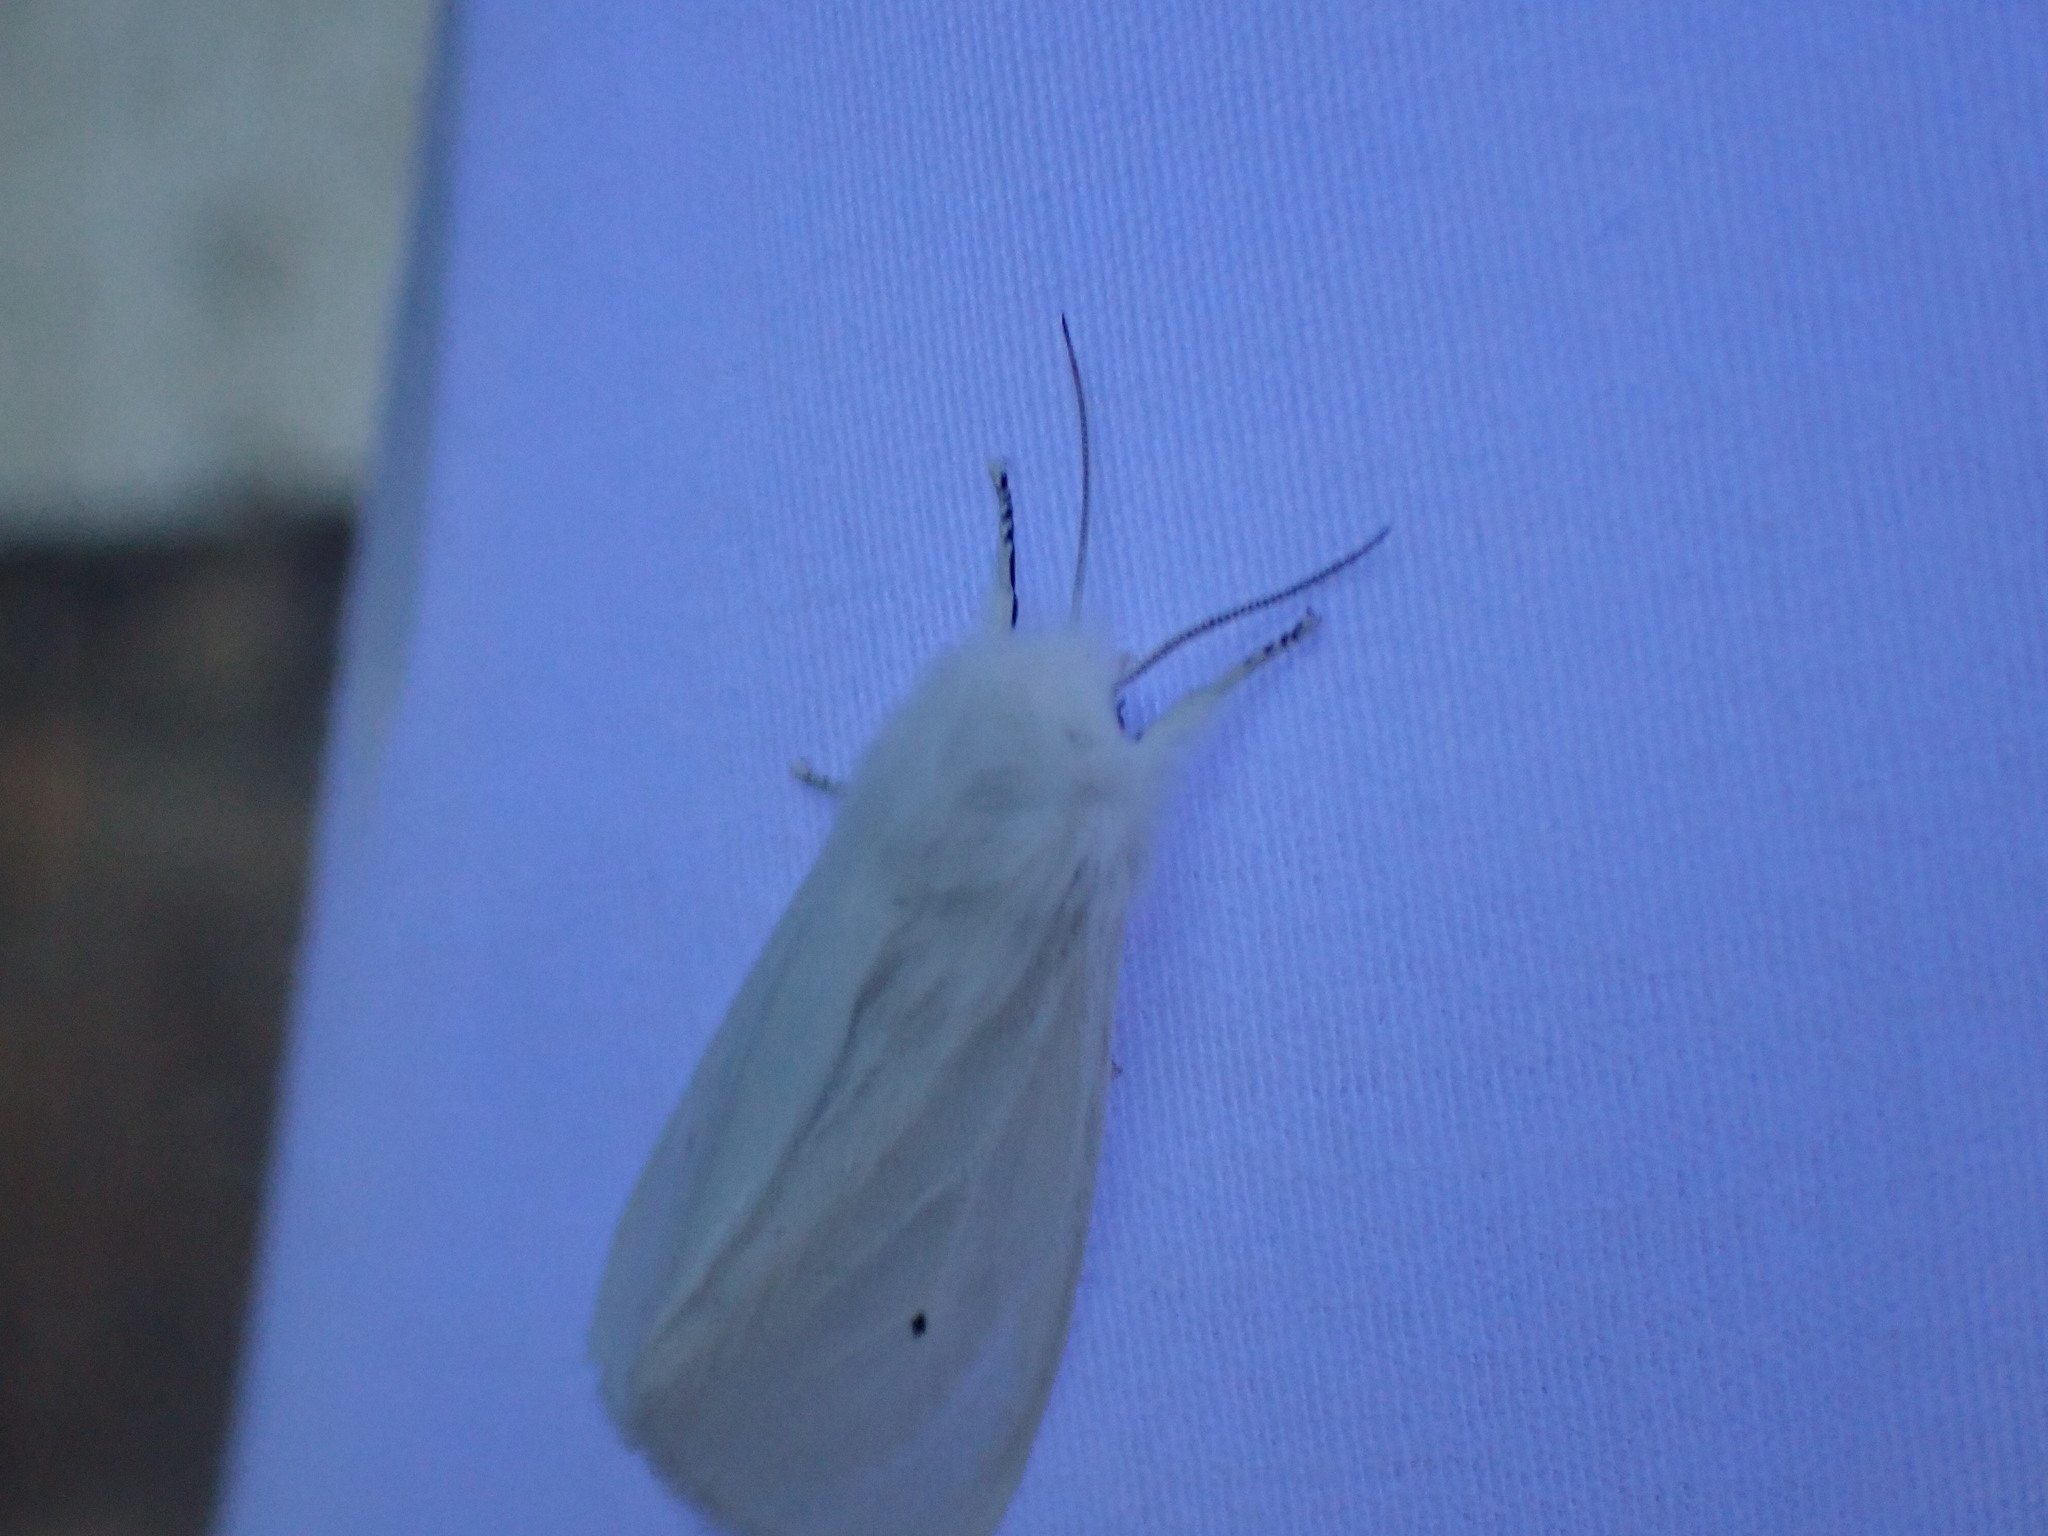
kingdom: Animalia
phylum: Arthropoda
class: Insecta
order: Lepidoptera
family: Erebidae
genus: Spilosoma
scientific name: Spilosoma virginica
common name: Virginia tiger moth
